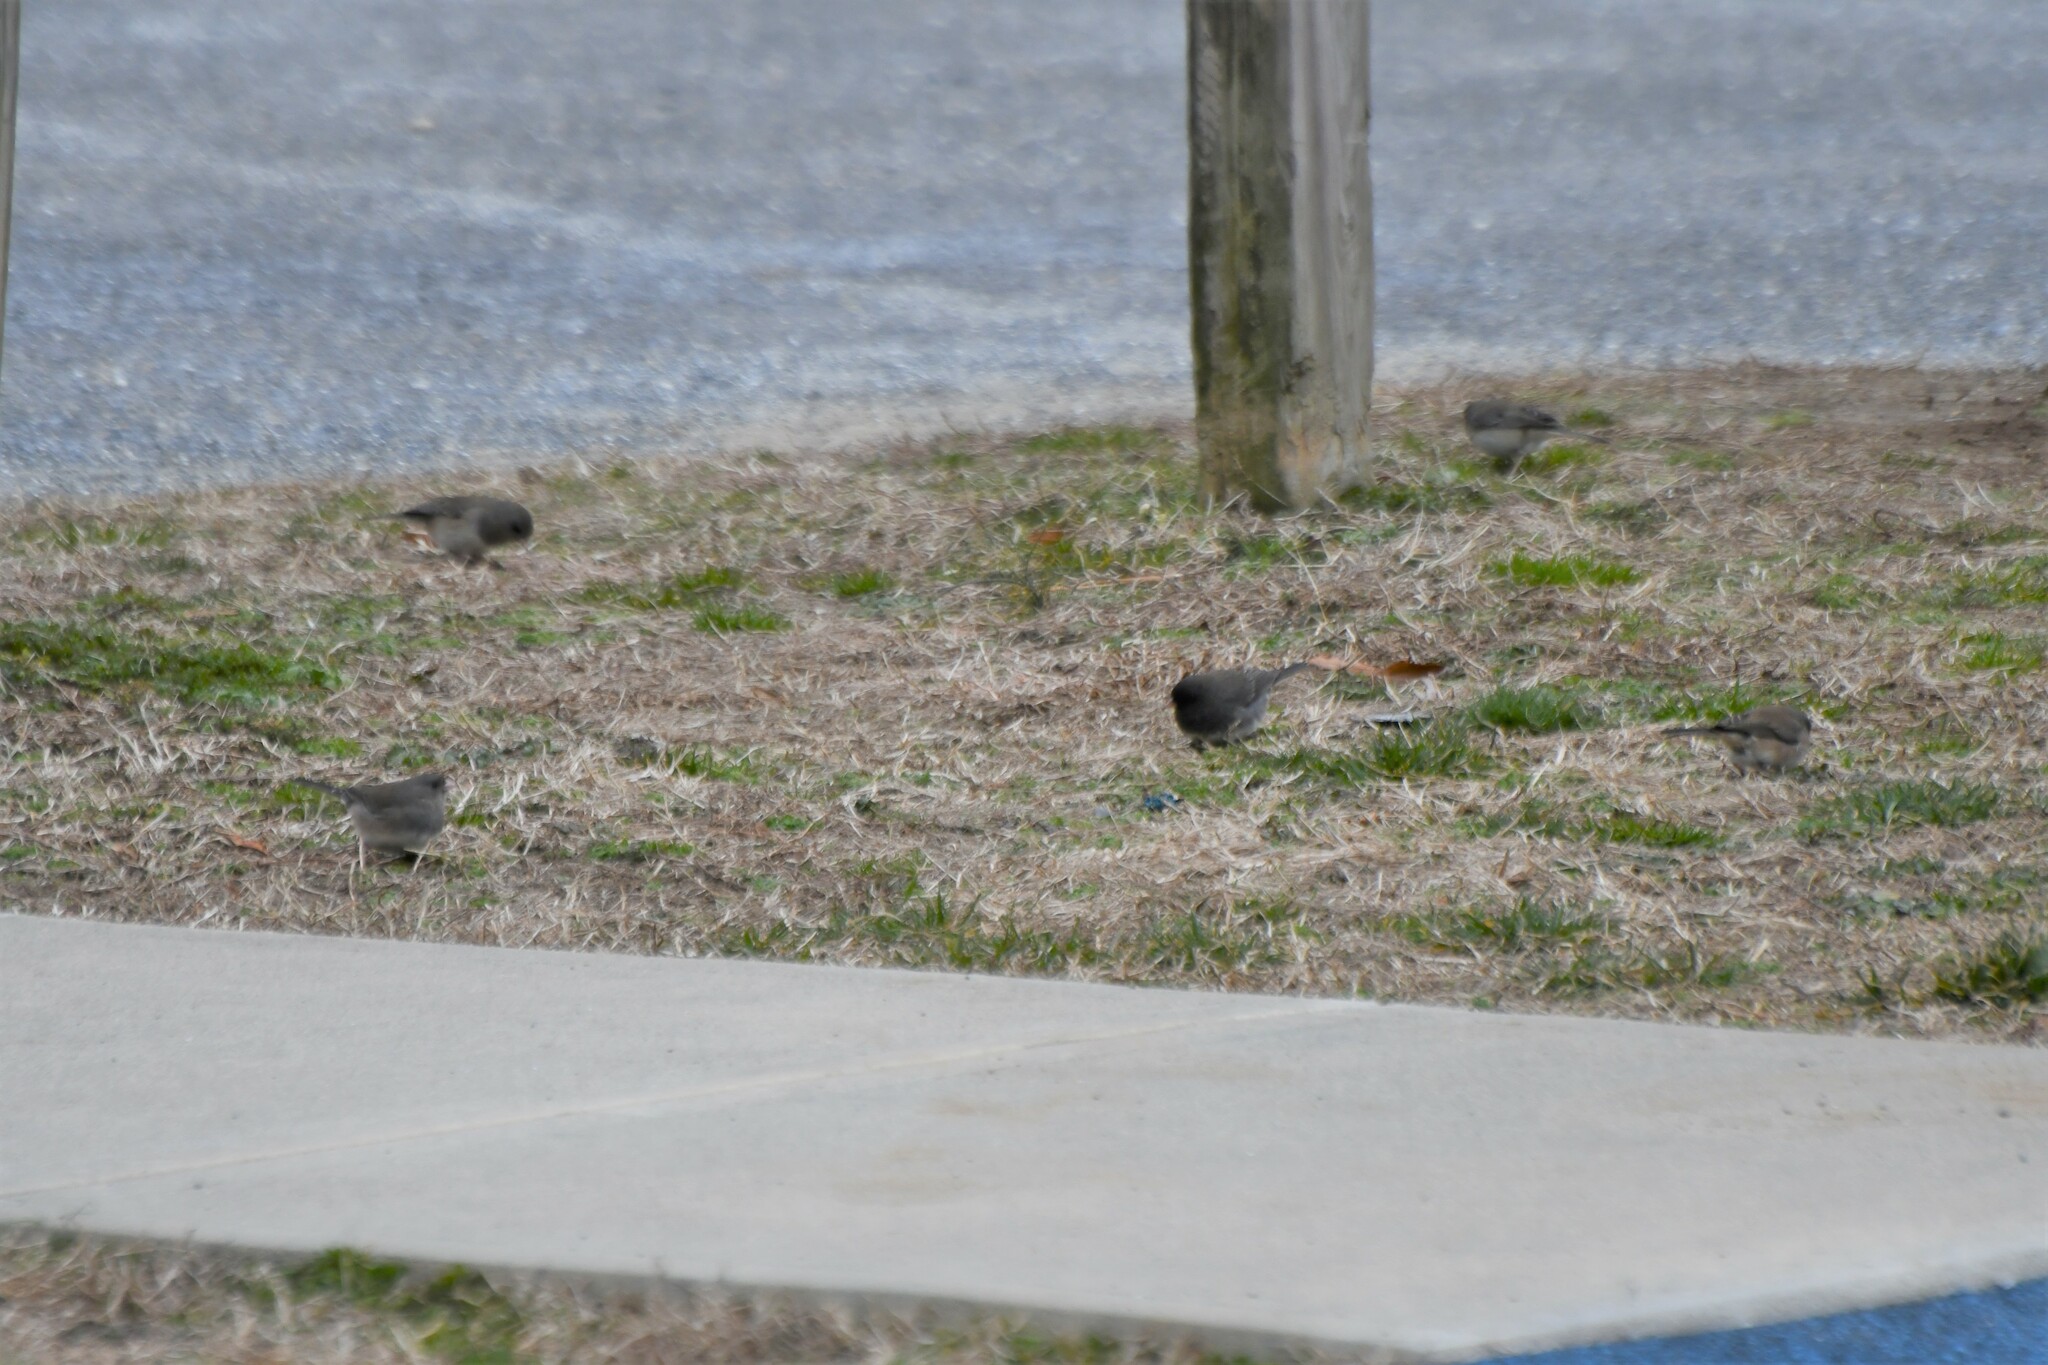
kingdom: Animalia
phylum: Chordata
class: Aves
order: Passeriformes
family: Passerellidae
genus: Junco
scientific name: Junco hyemalis
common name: Dark-eyed junco
